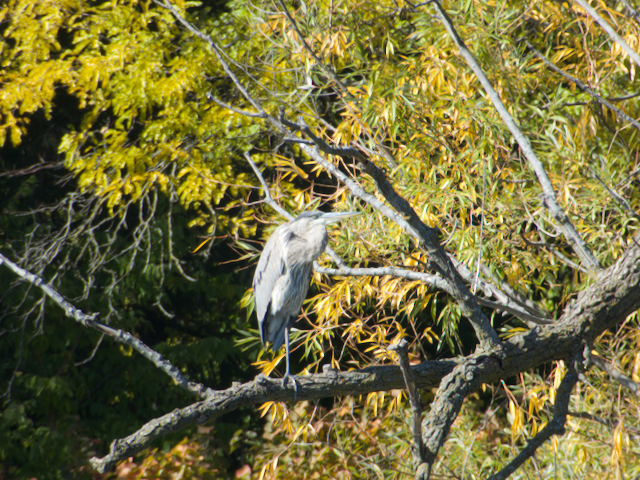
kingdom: Animalia
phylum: Chordata
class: Aves
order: Pelecaniformes
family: Ardeidae
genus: Ardea
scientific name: Ardea herodias
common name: Great blue heron
